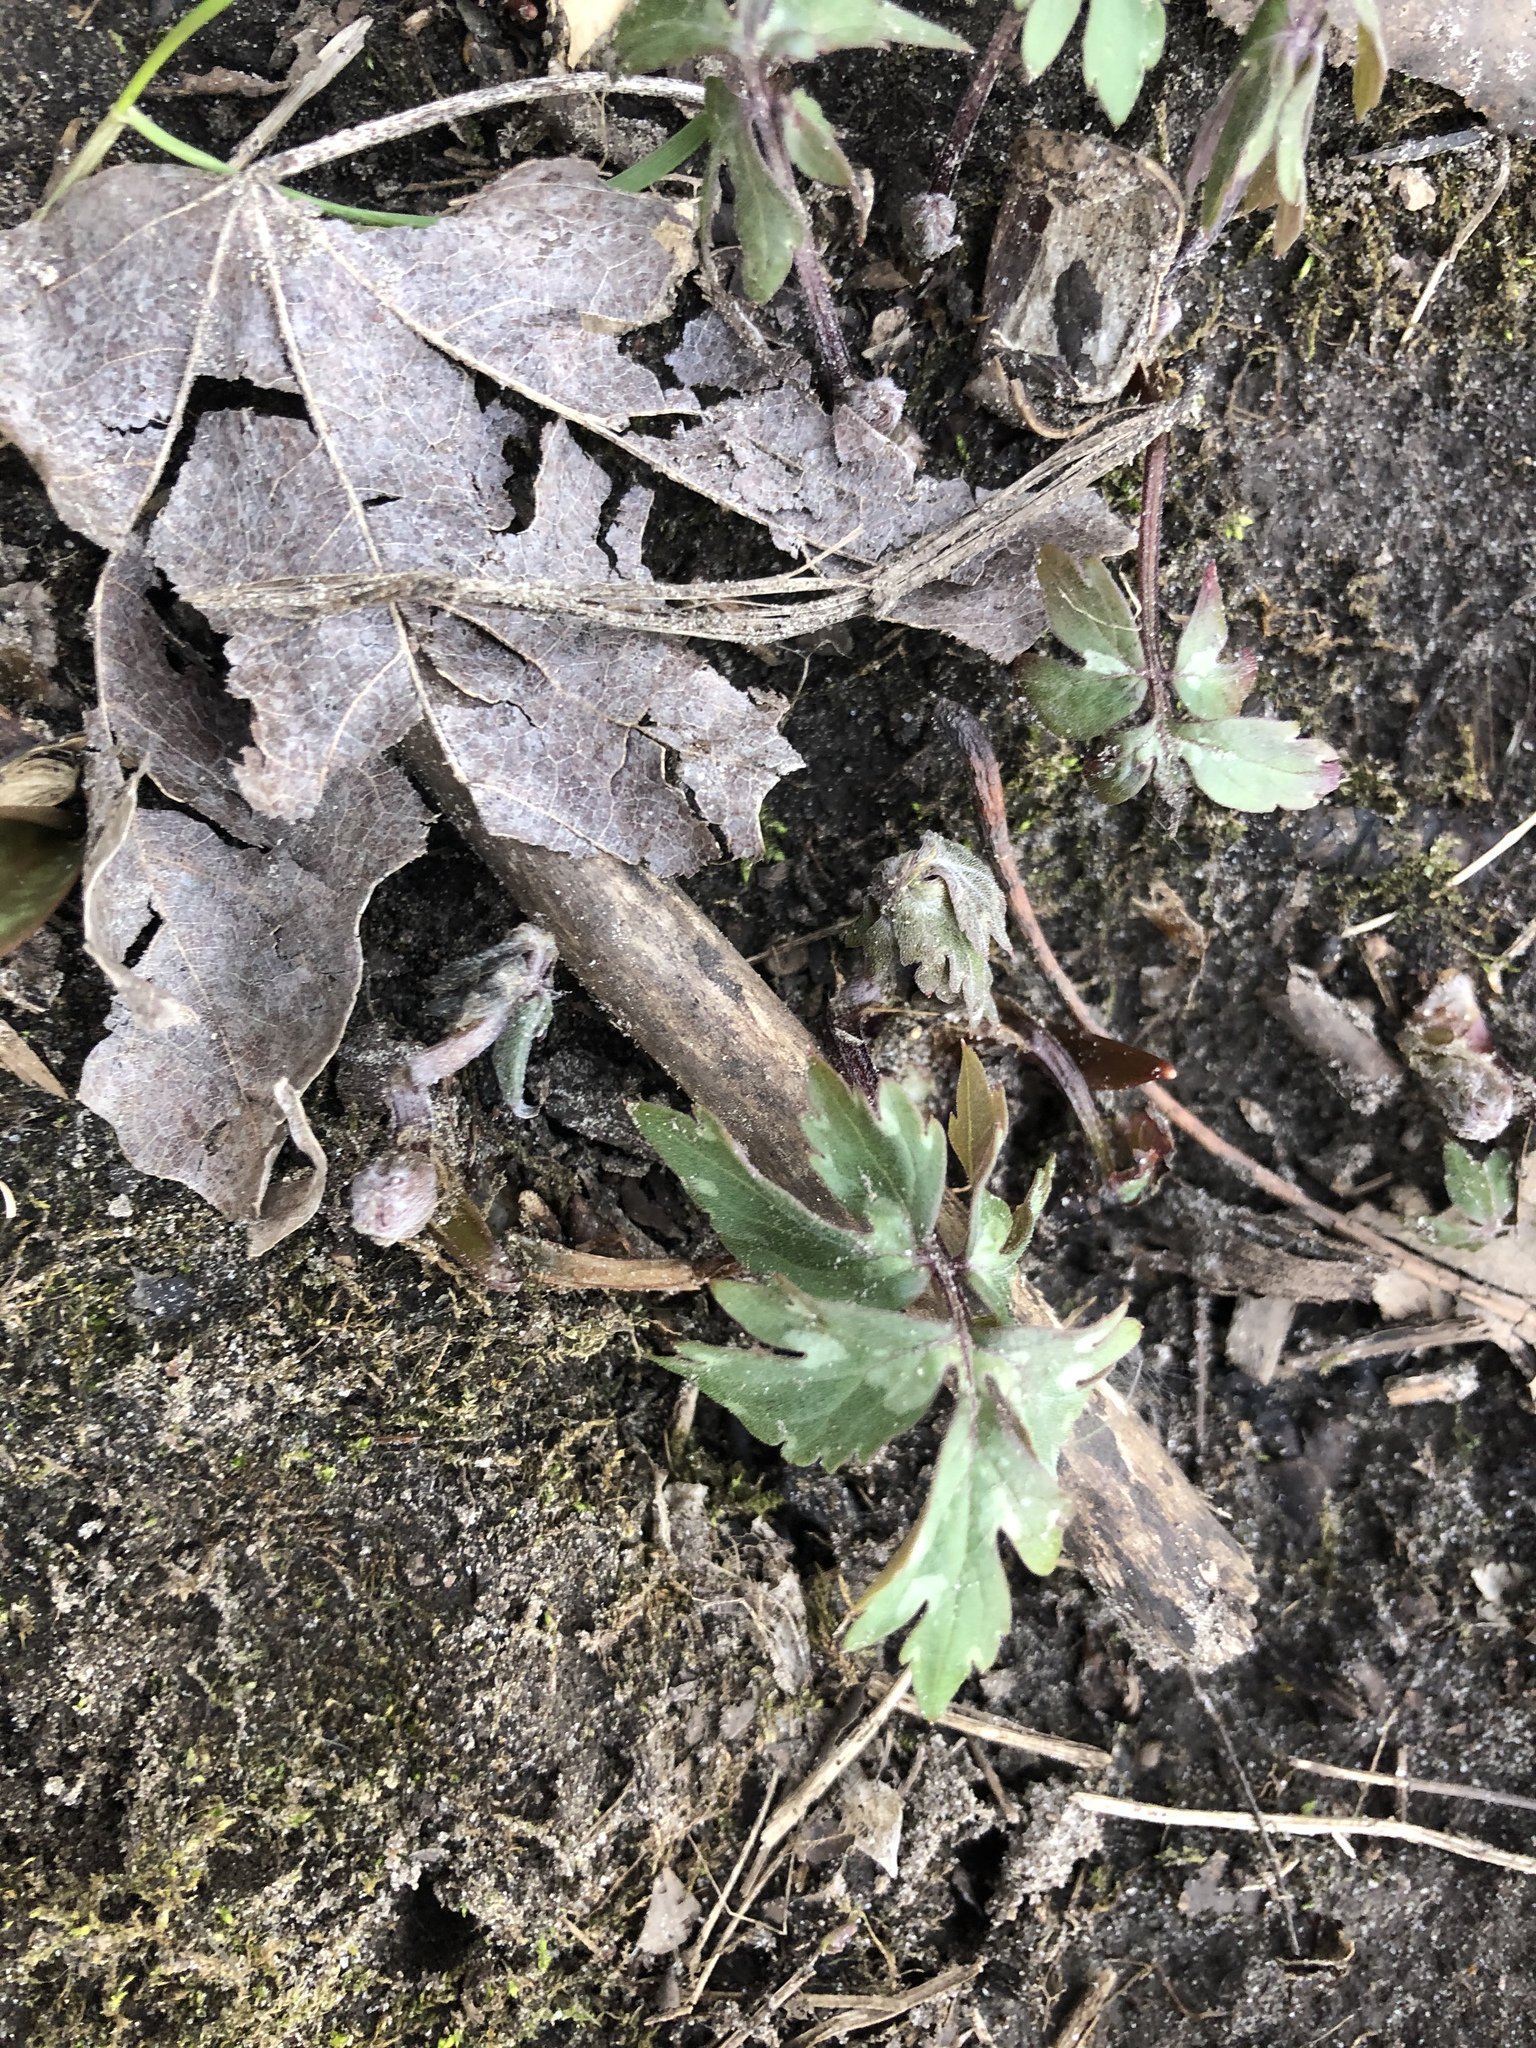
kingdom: Plantae
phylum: Tracheophyta
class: Magnoliopsida
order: Boraginales
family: Hydrophyllaceae
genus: Hydrophyllum
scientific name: Hydrophyllum virginianum
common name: Virginia waterleaf
